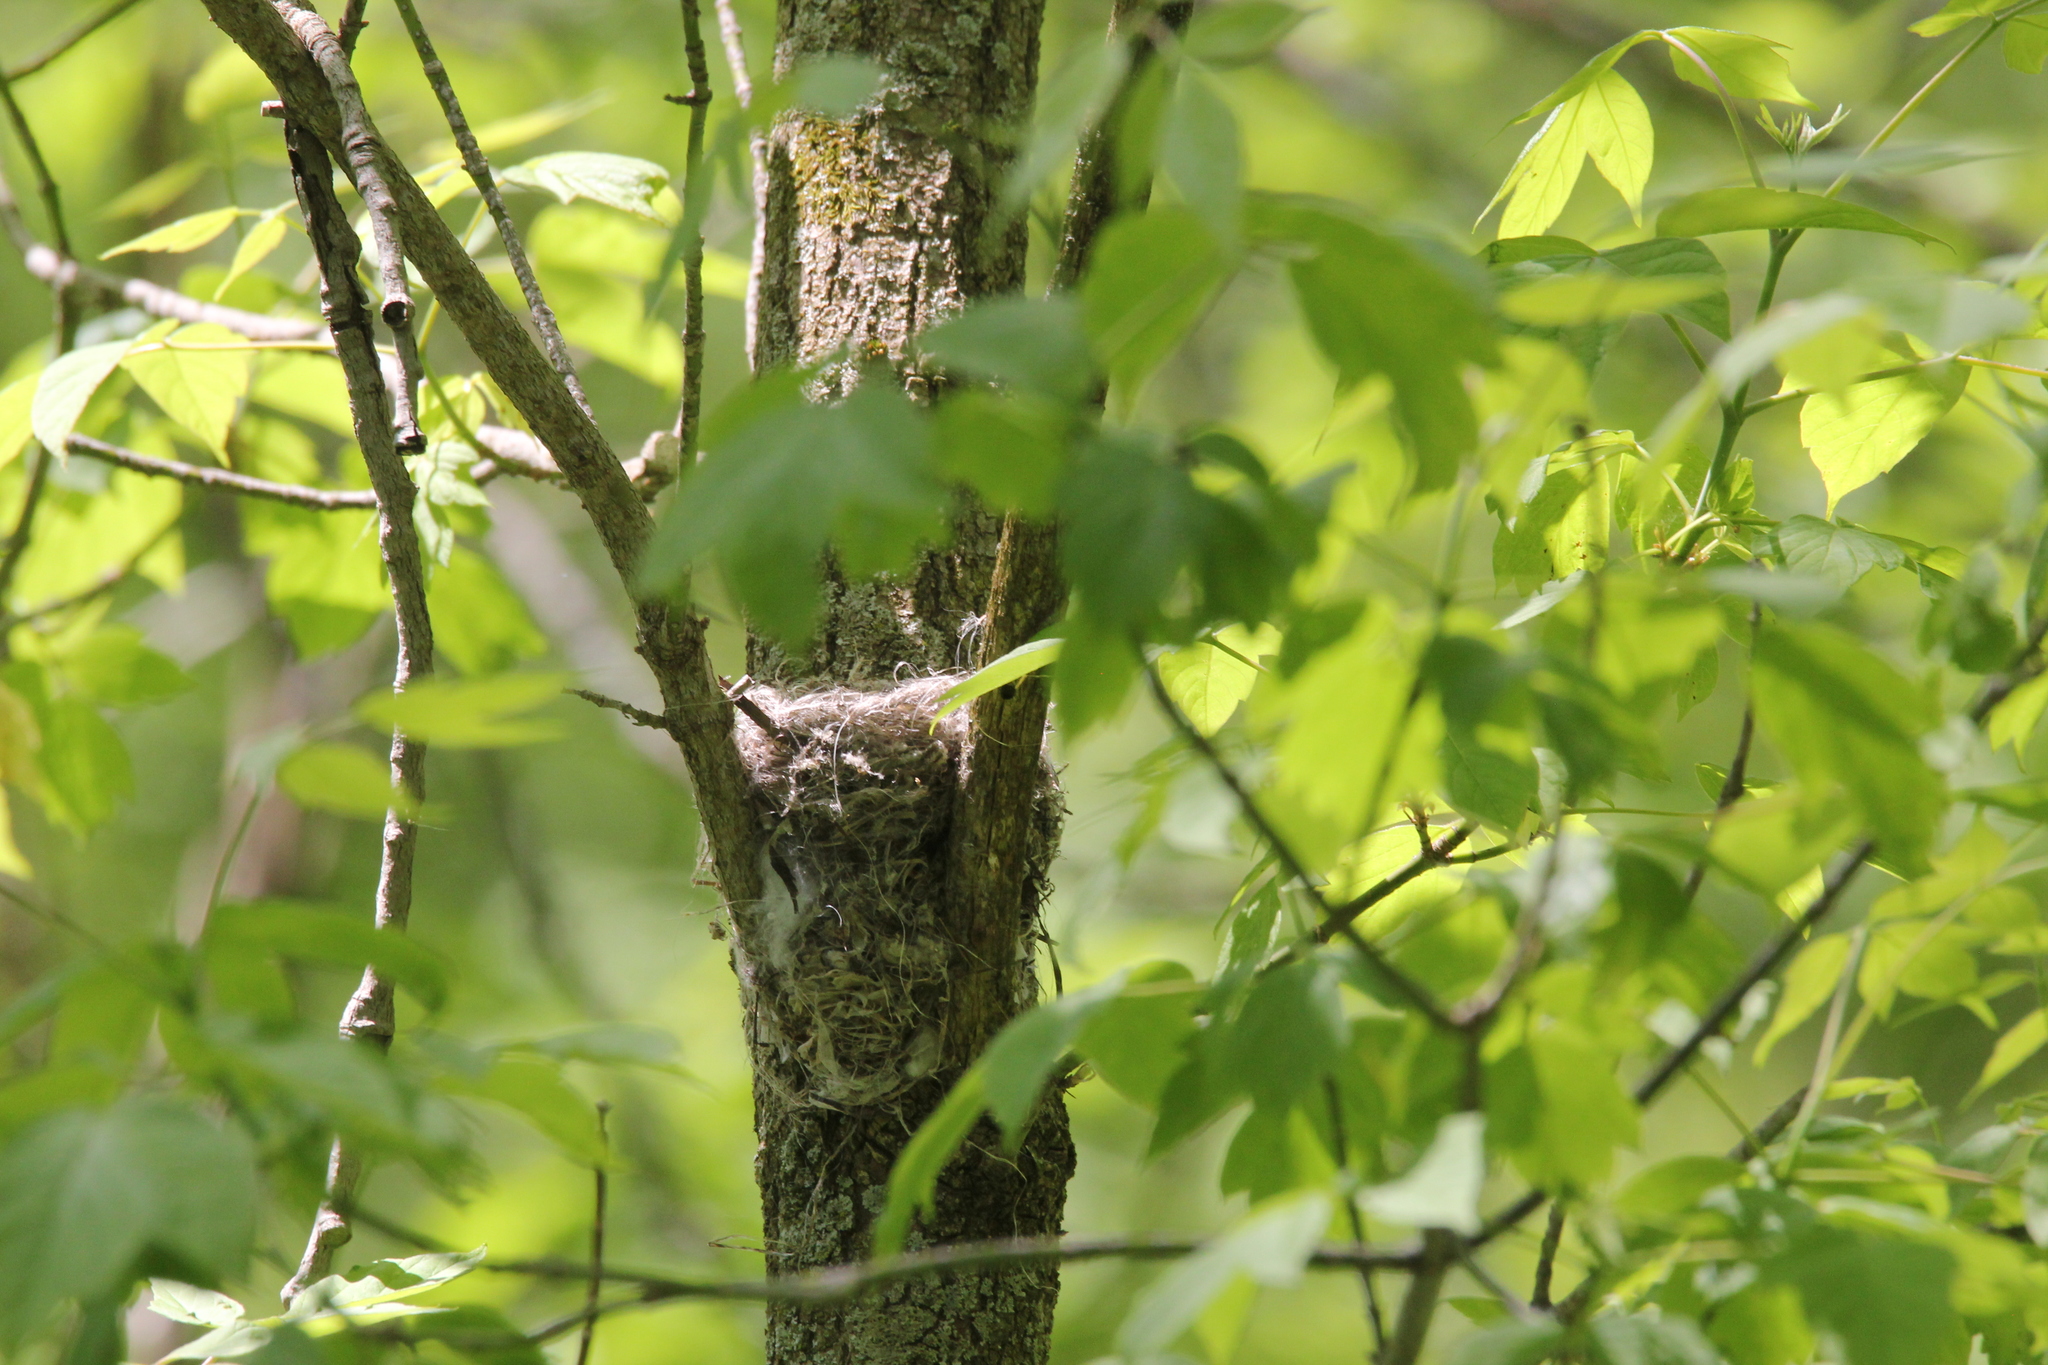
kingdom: Animalia
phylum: Chordata
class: Aves
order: Passeriformes
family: Parulidae
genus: Setophaga
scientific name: Setophaga ruticilla
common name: American redstart
